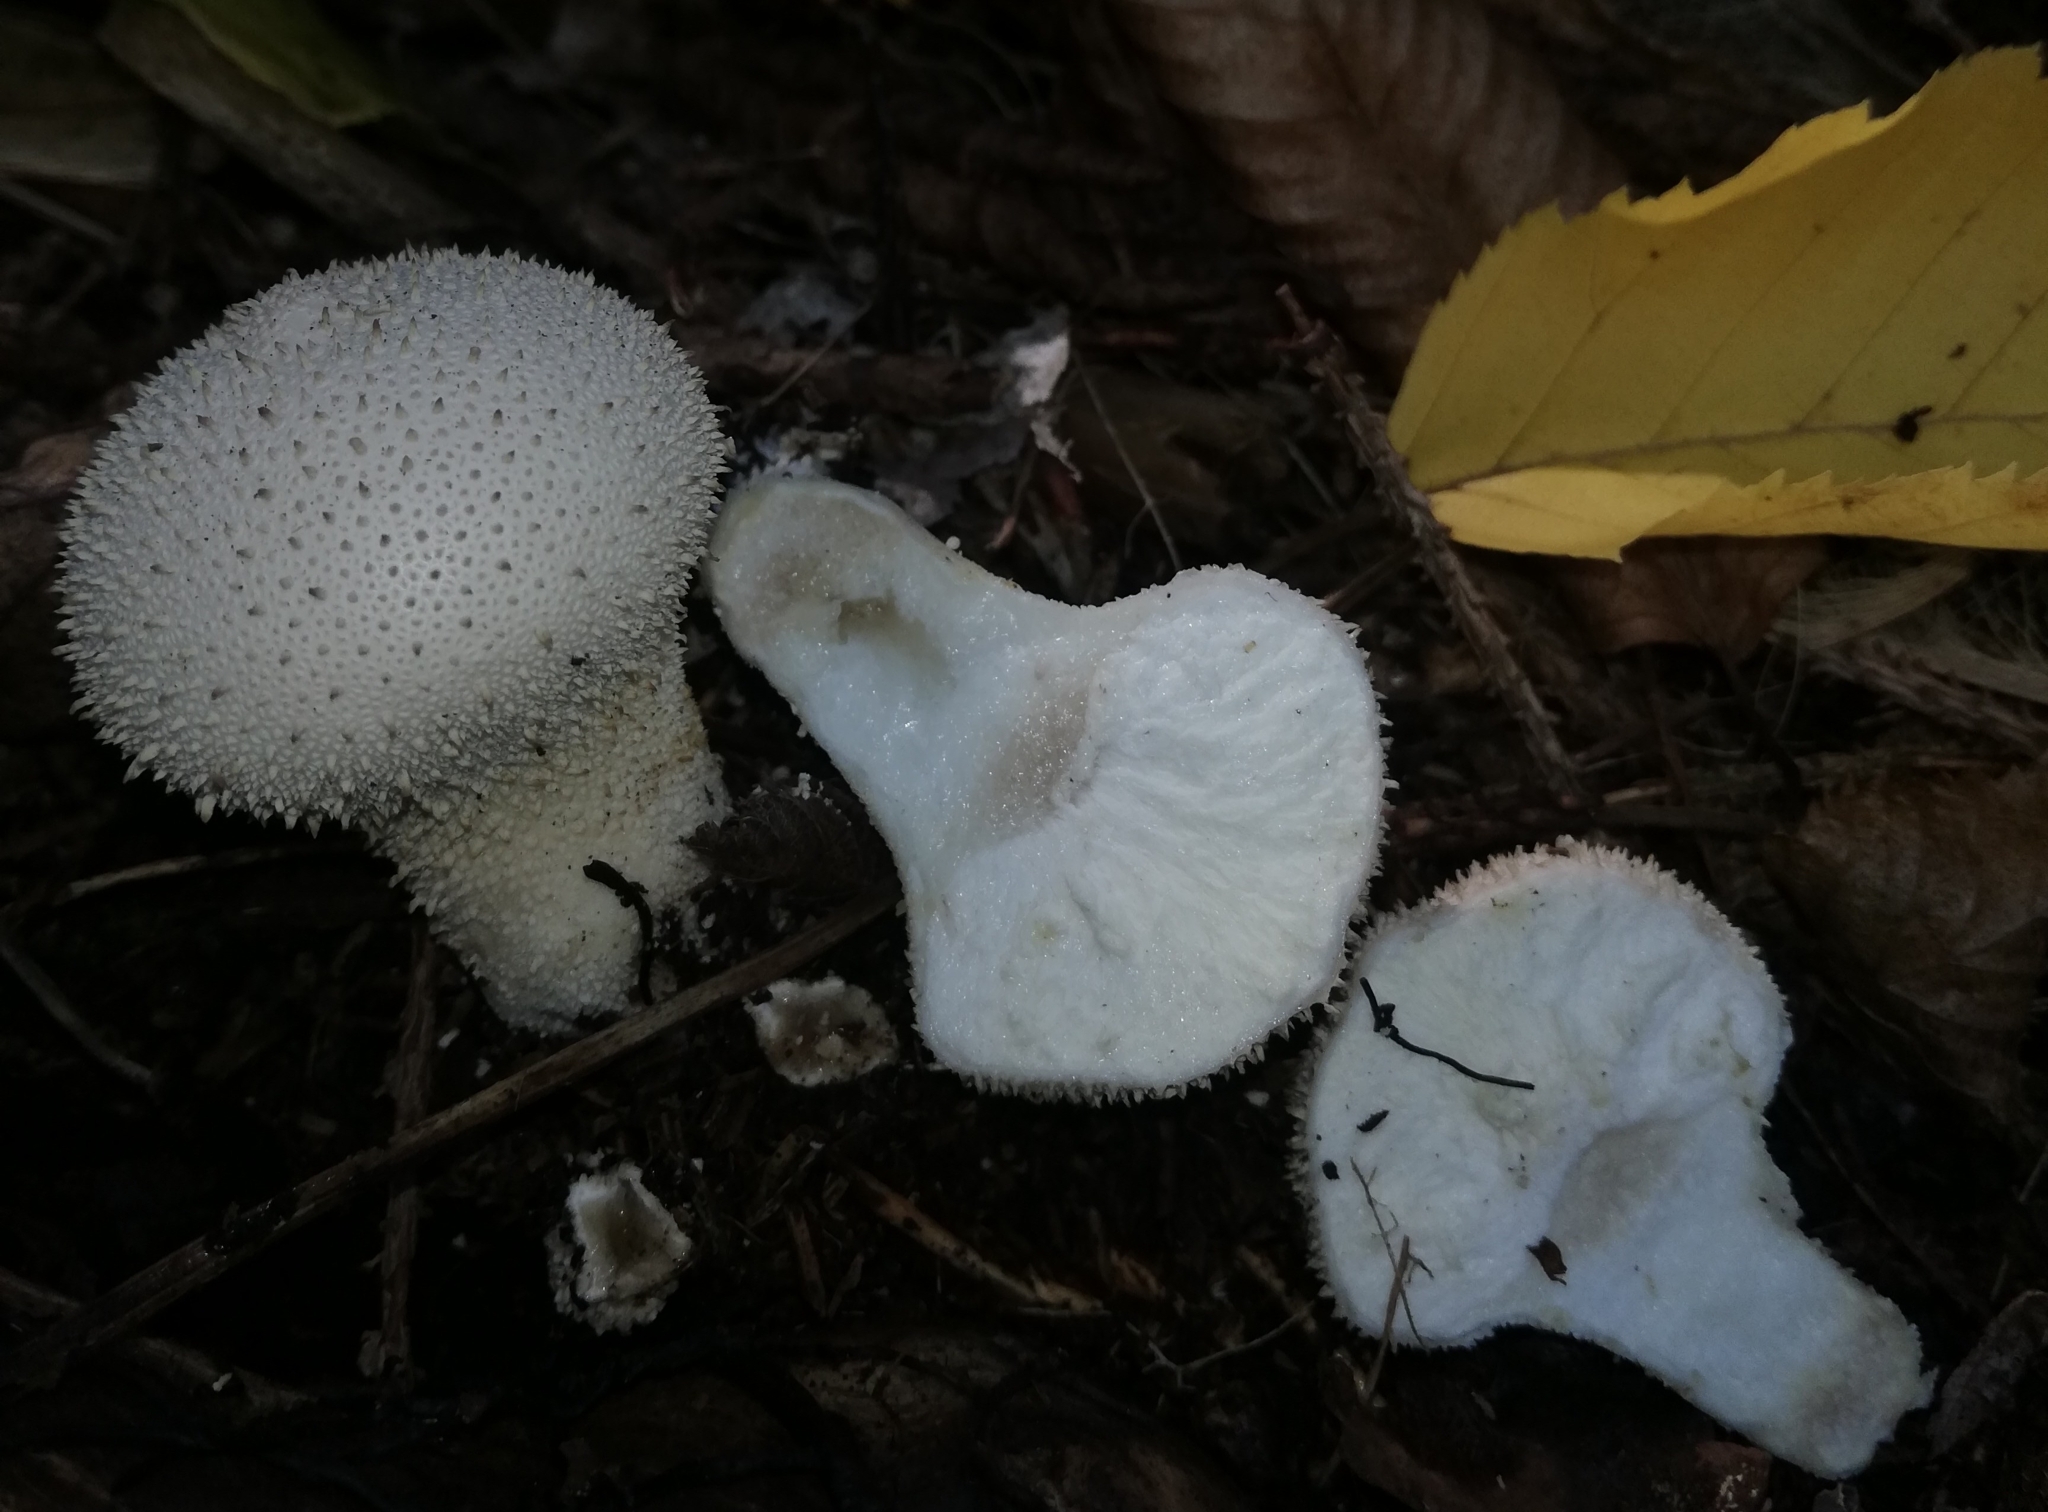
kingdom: Fungi
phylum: Basidiomycota
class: Agaricomycetes
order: Agaricales
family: Lycoperdaceae
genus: Lycoperdon
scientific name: Lycoperdon perlatum
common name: Common puffball
